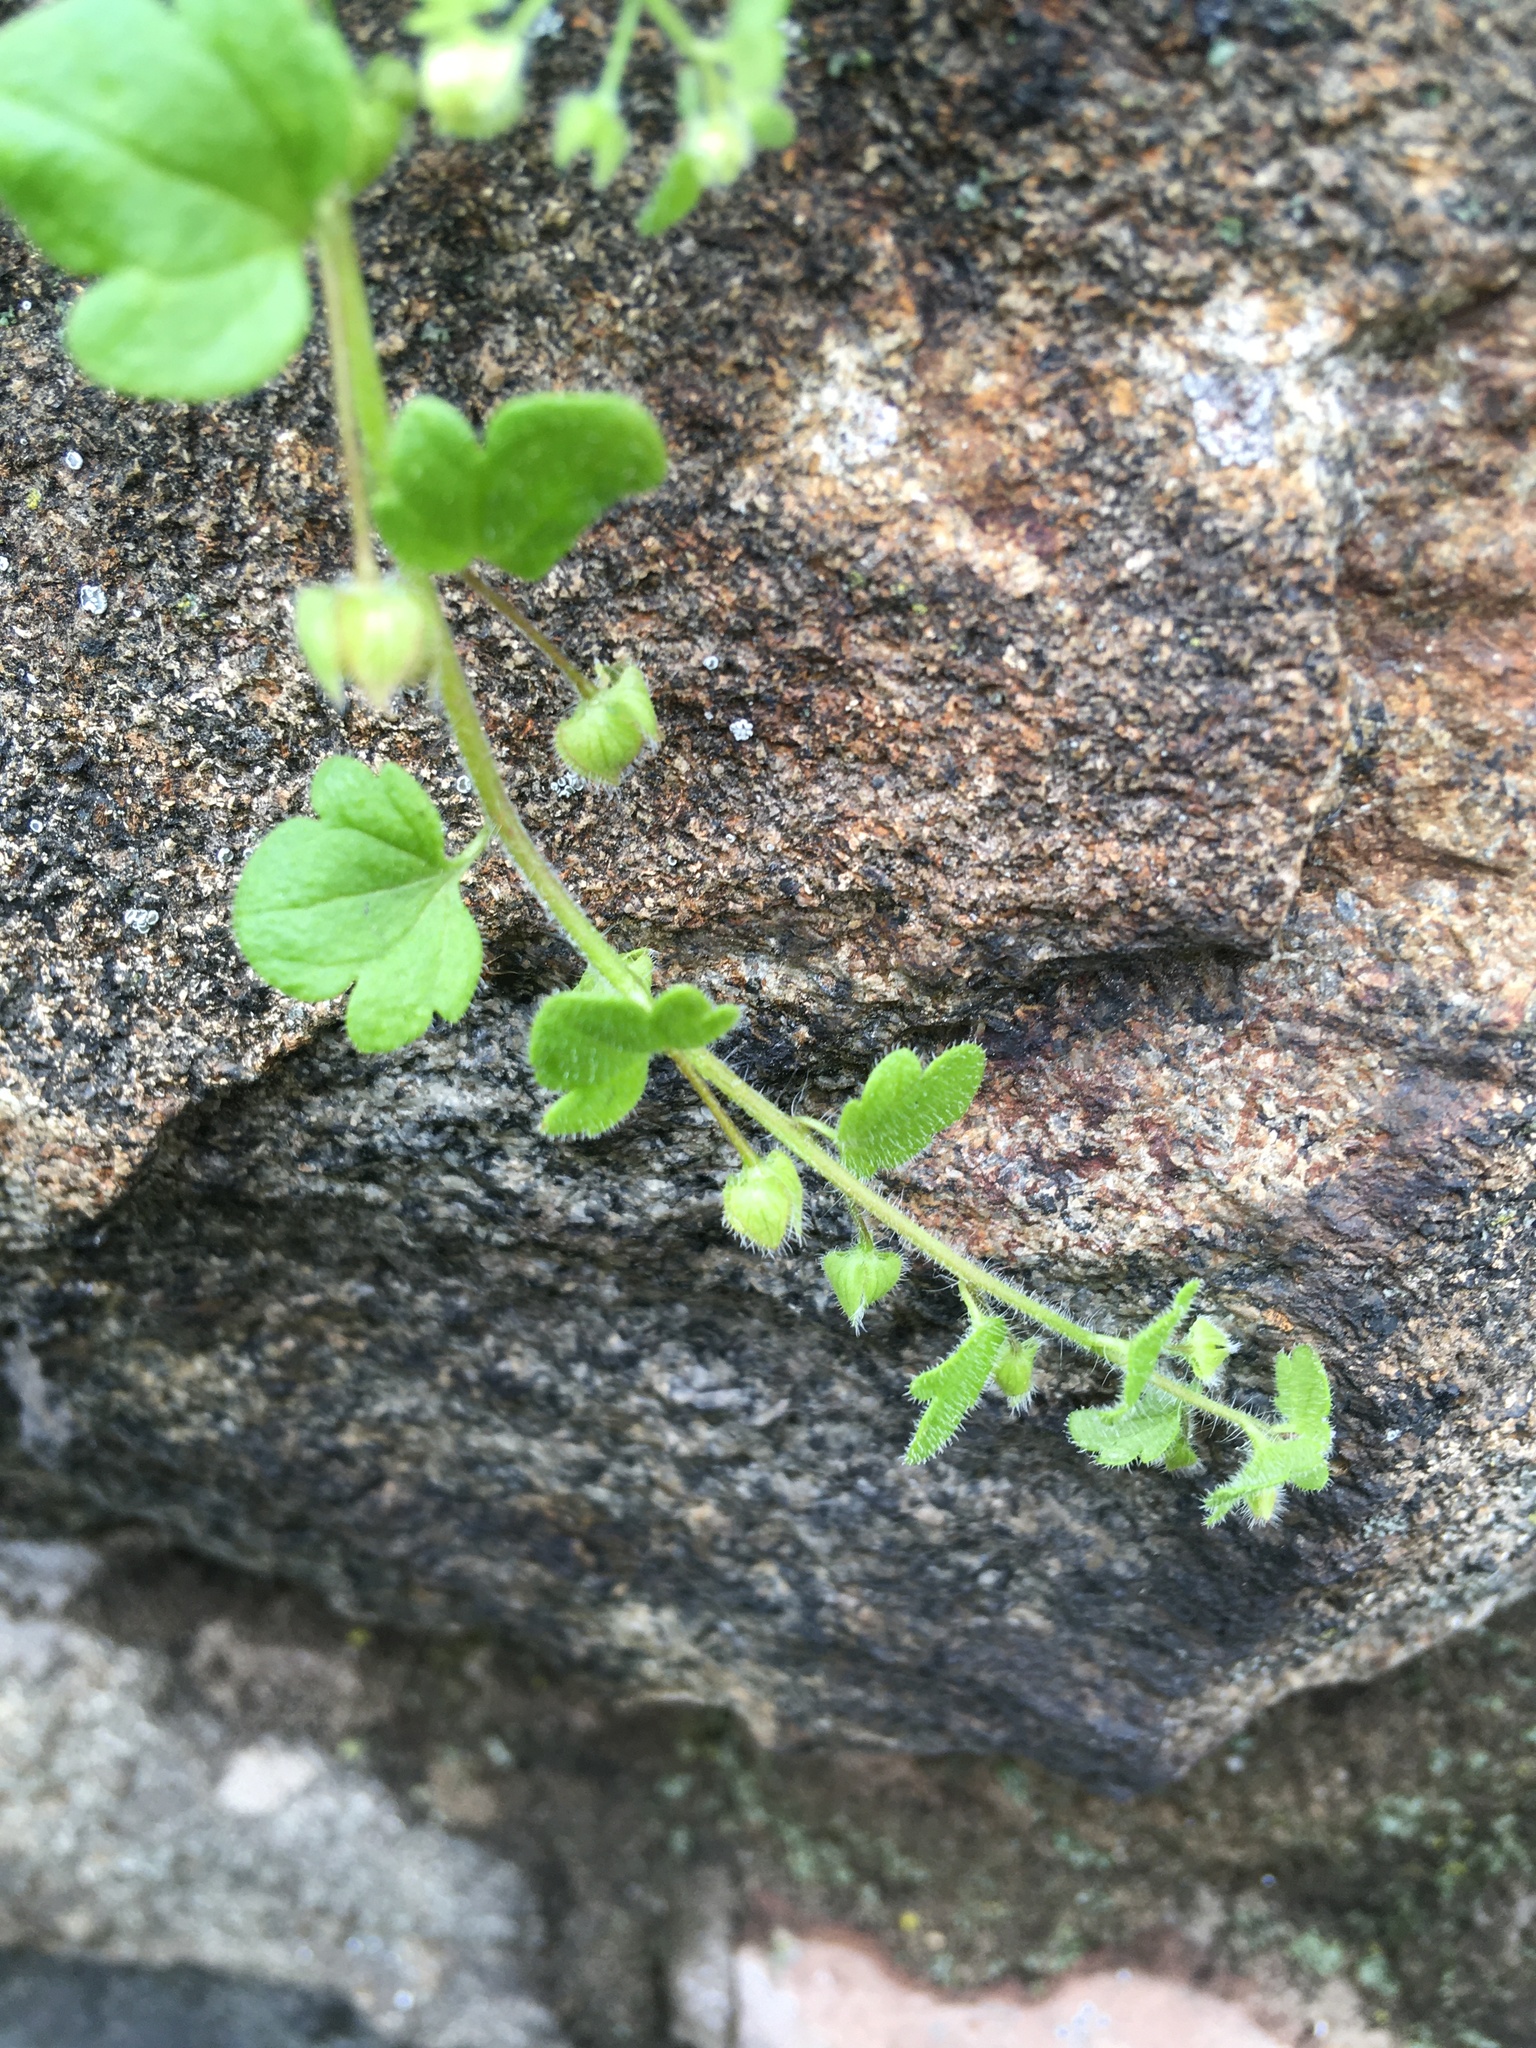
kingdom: Plantae
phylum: Tracheophyta
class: Magnoliopsida
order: Lamiales
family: Plantaginaceae
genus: Veronica
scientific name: Veronica sublobata
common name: False ivy-leaved speedwell
